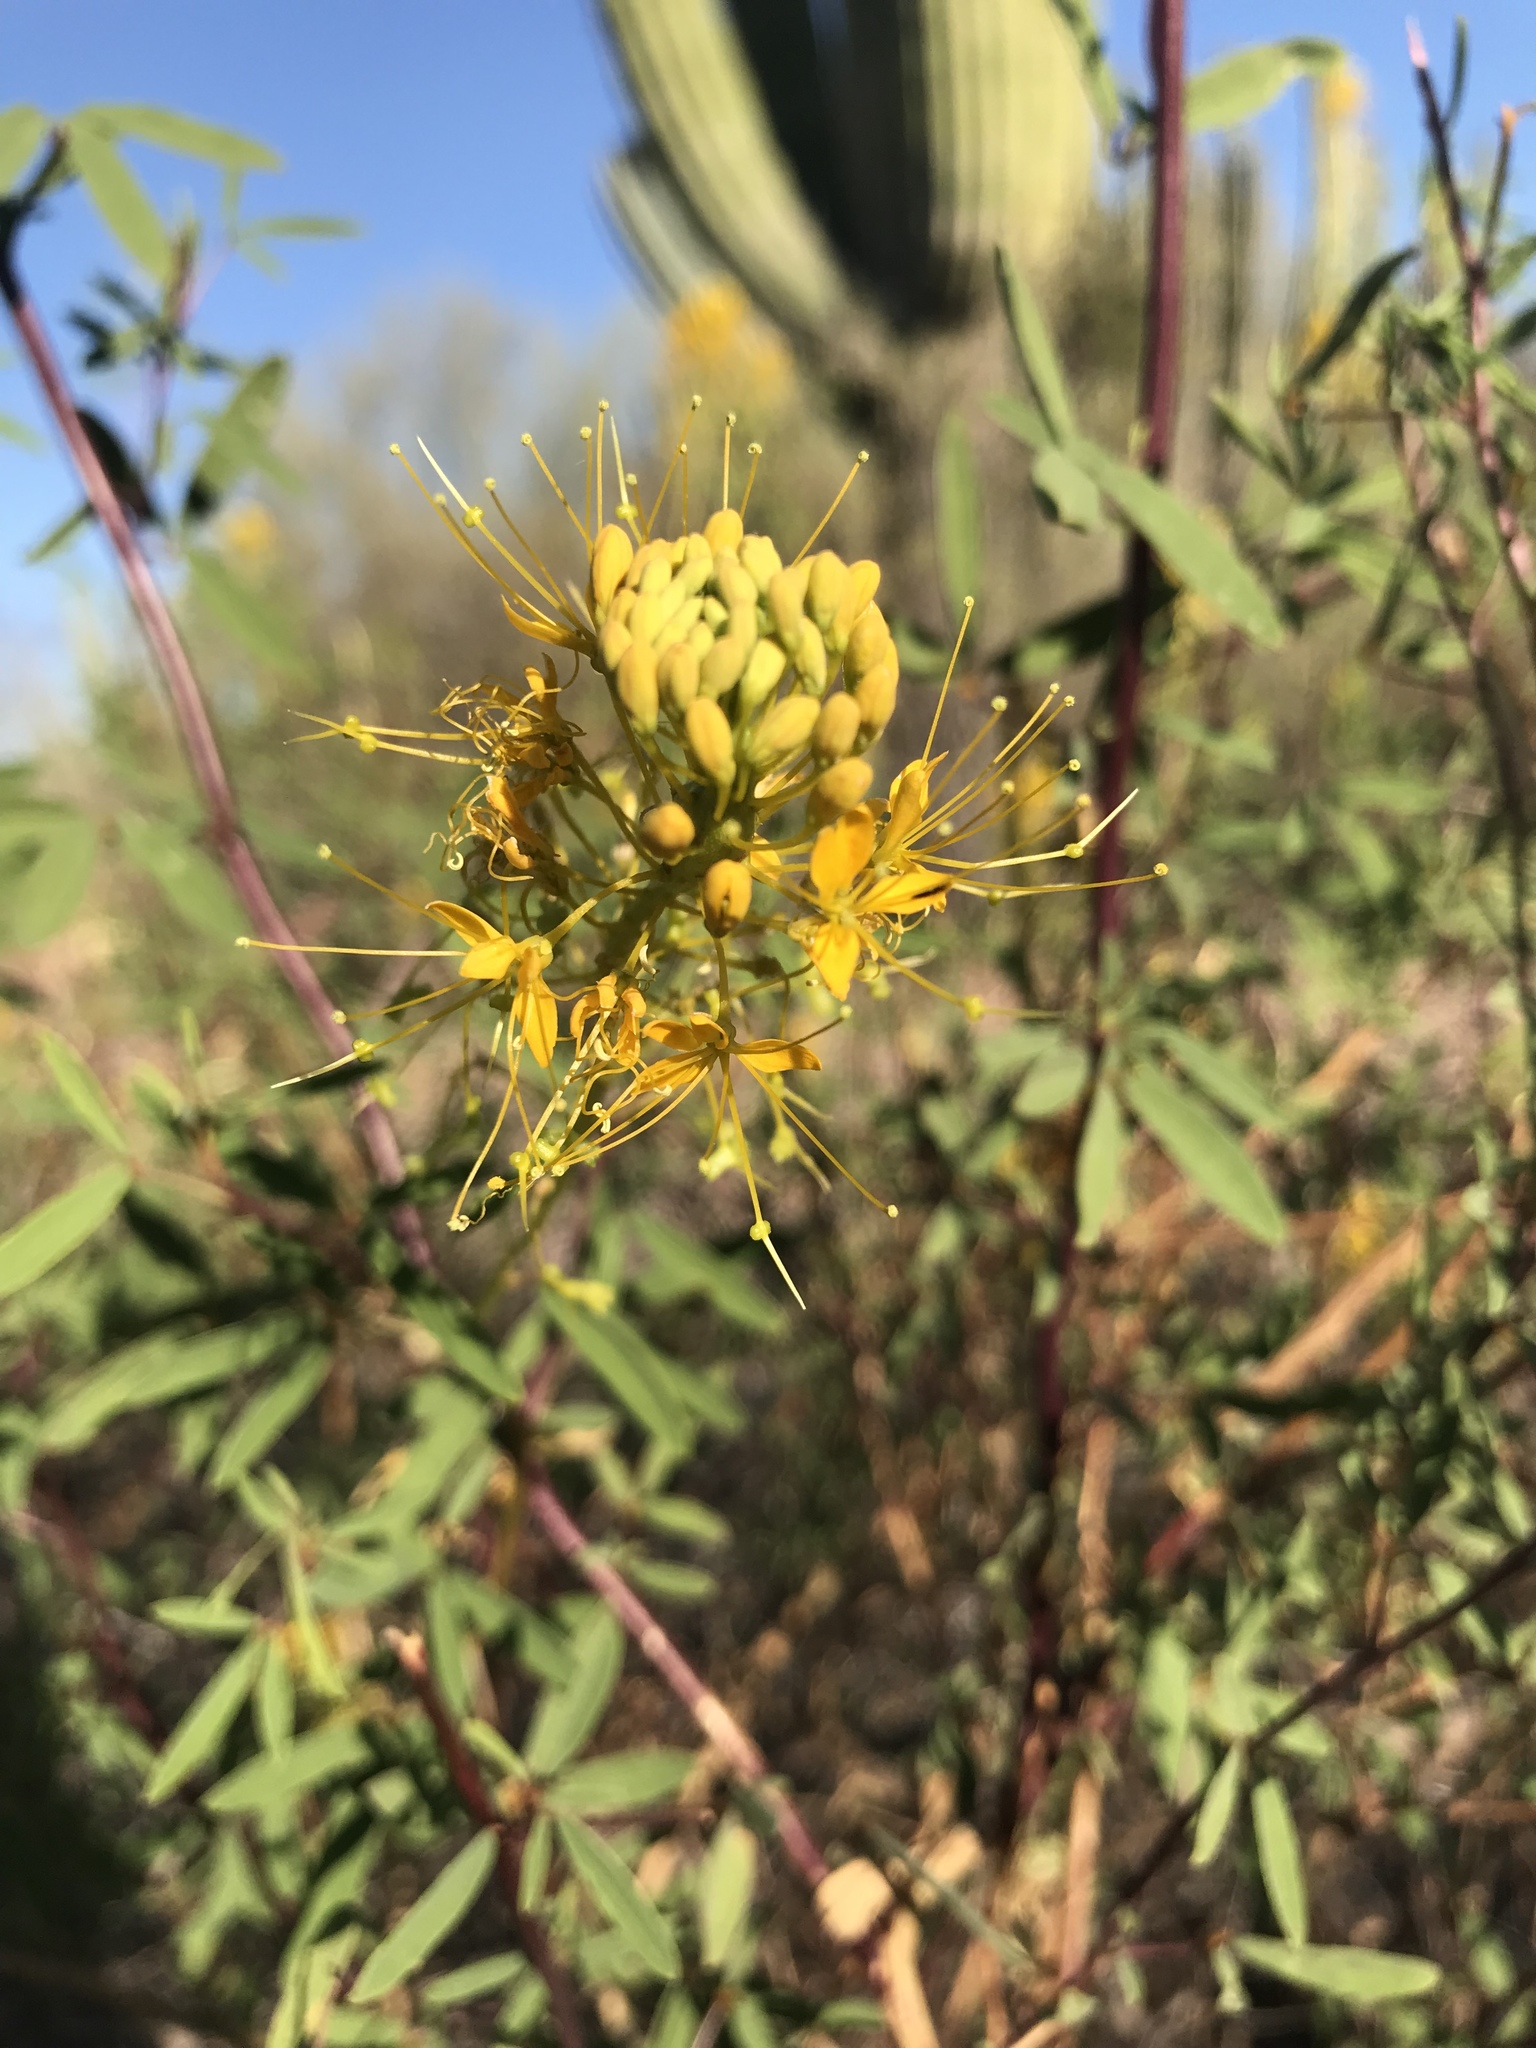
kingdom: Plantae
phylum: Tracheophyta
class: Magnoliopsida
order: Brassicales
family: Cleomaceae
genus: Cleomella
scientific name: Cleomella refracta
